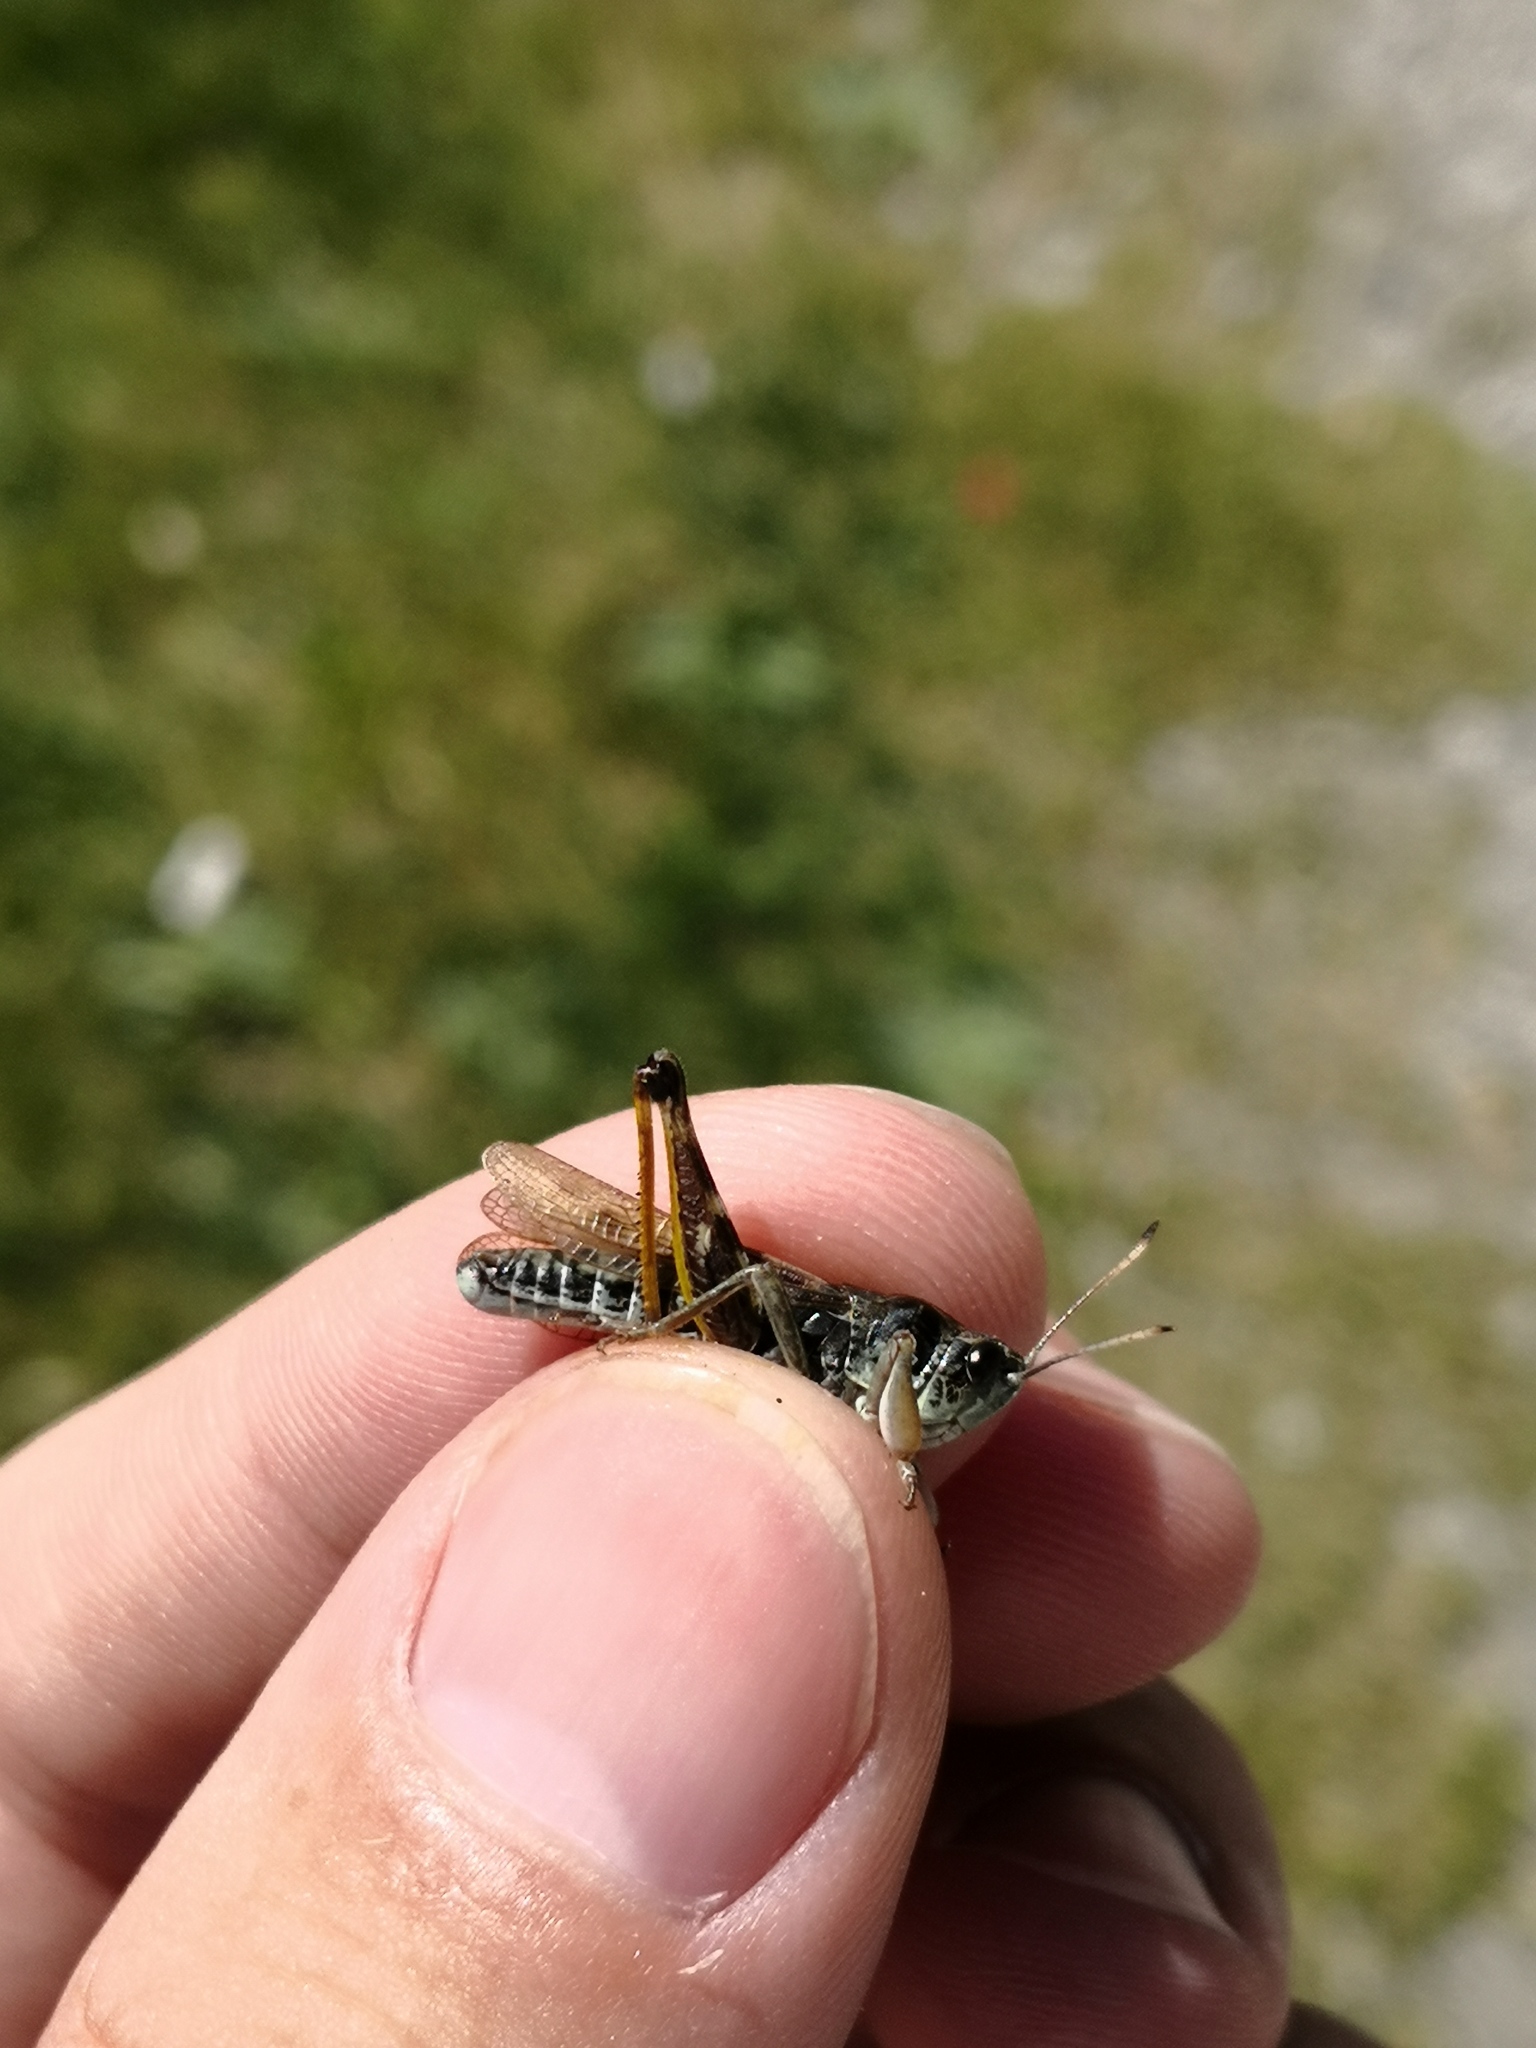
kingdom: Animalia
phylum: Arthropoda
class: Insecta
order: Orthoptera
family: Acrididae
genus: Gomphocerus
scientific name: Gomphocerus sibiricus
